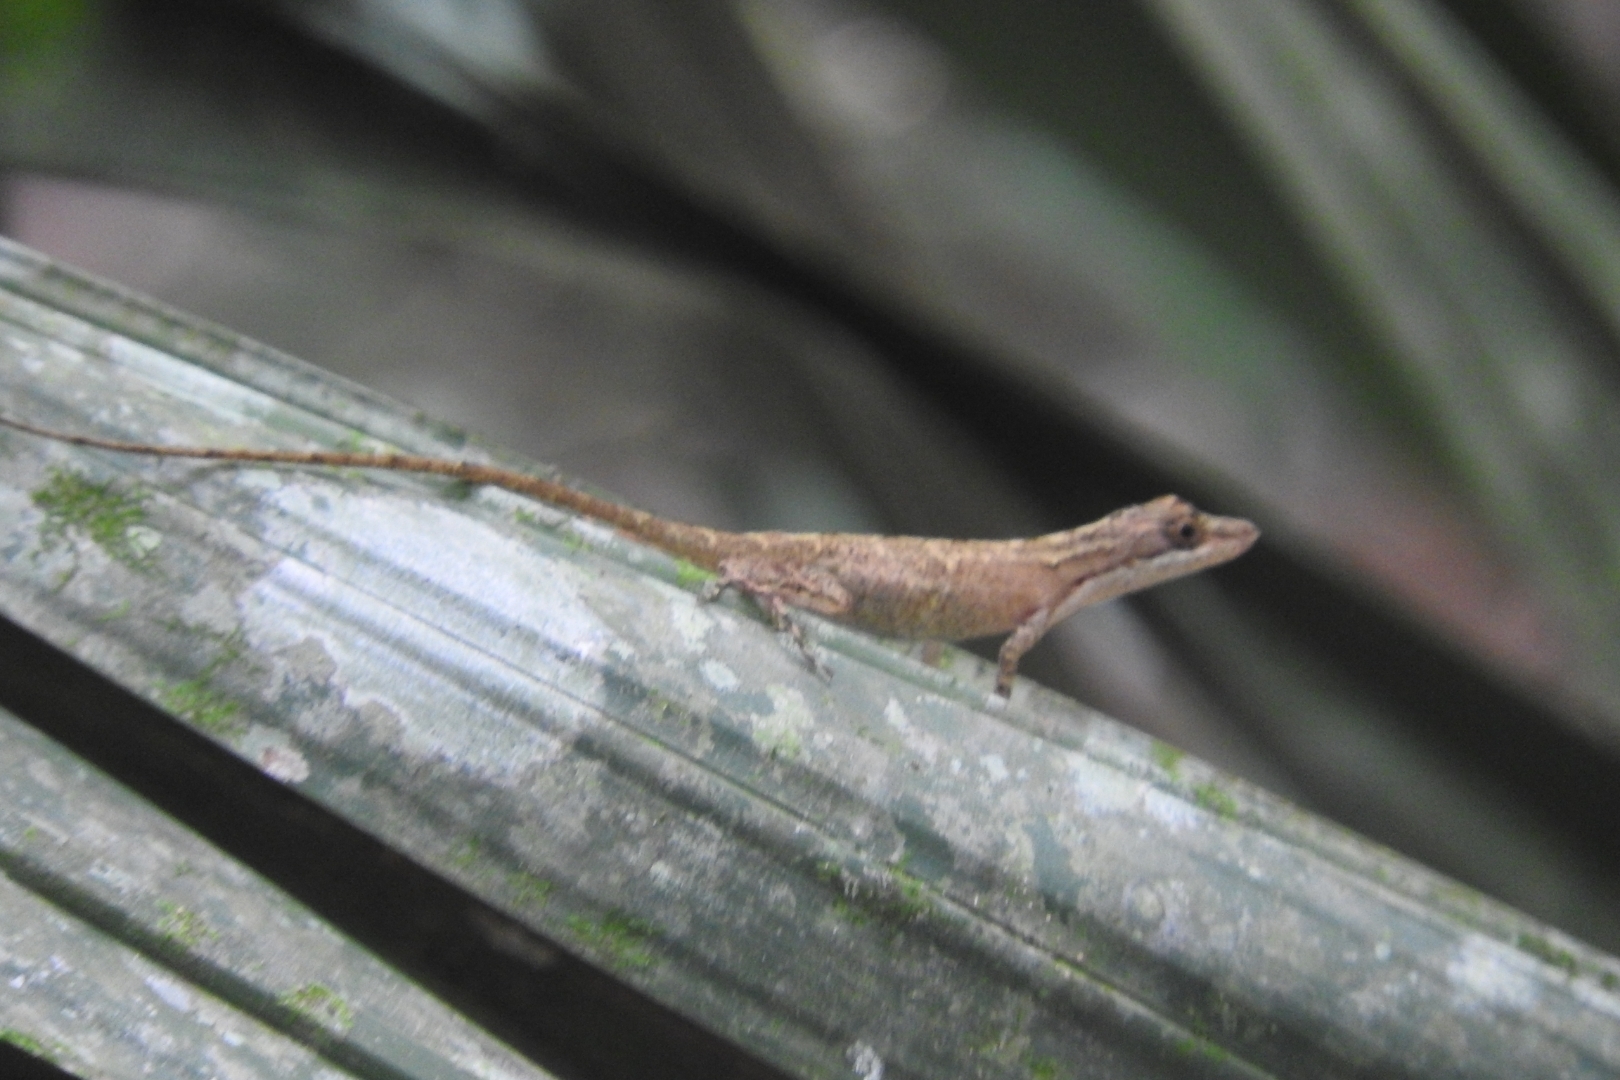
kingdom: Animalia
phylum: Chordata
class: Squamata
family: Dactyloidae
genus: Anolis
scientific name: Anolis rodriguezii
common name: Middle american smooth anole
